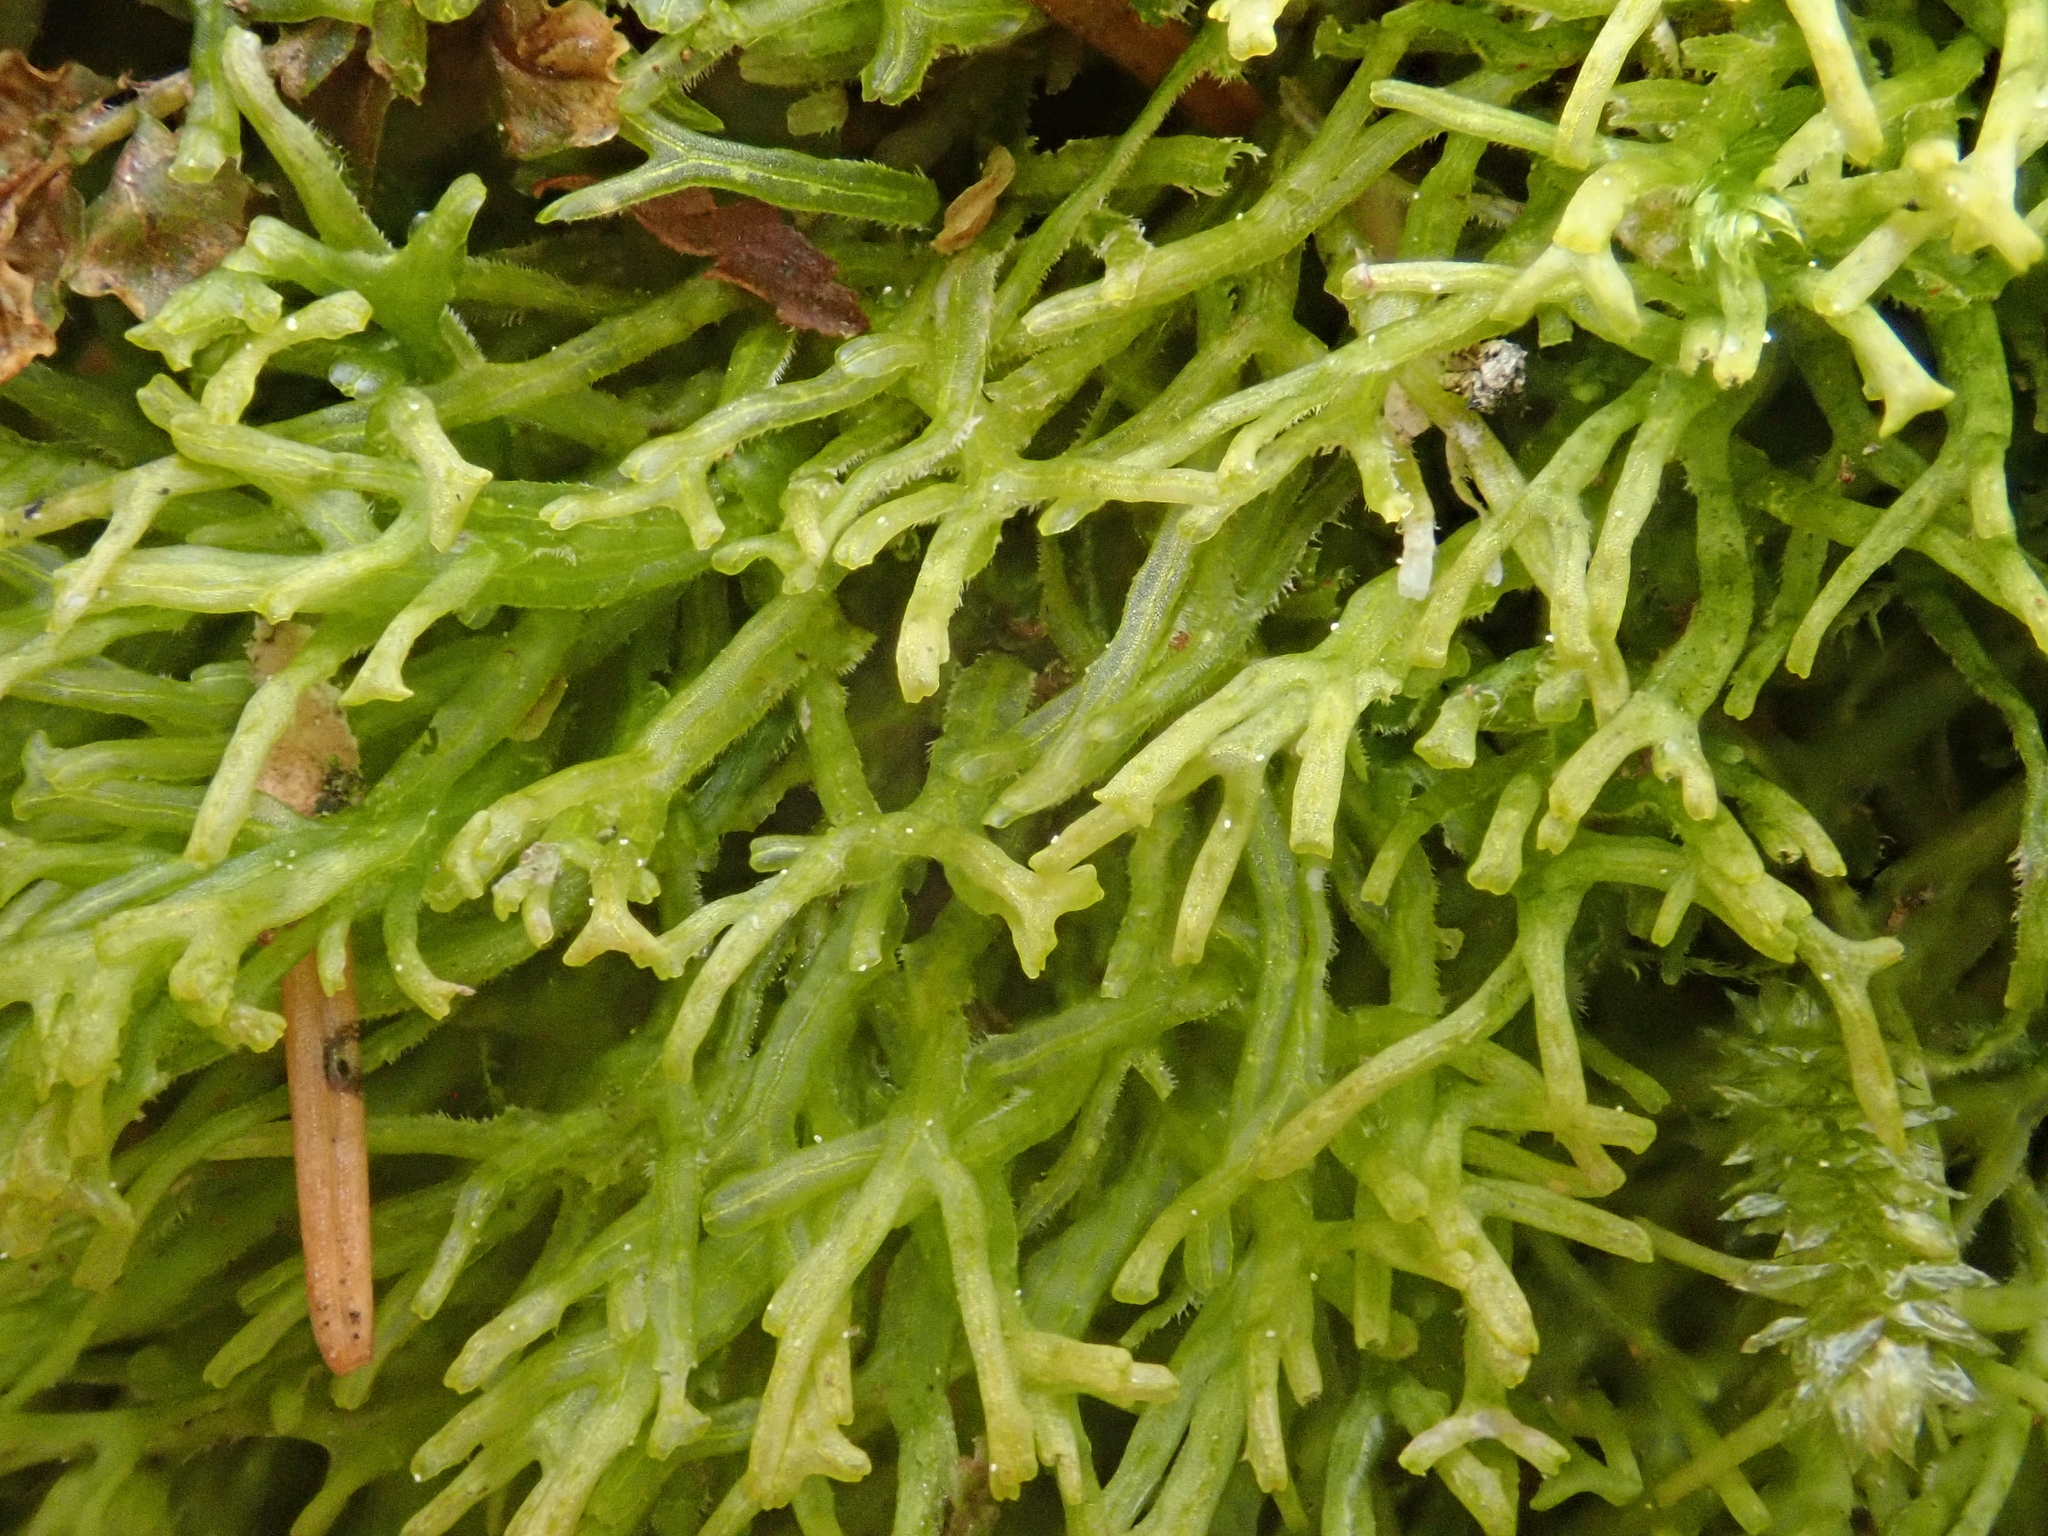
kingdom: Plantae
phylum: Marchantiophyta
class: Jungermanniopsida
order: Metzgeriales
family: Metzgeriaceae
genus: Metzgeria
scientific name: Metzgeria conjugata
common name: Rock veilwort
